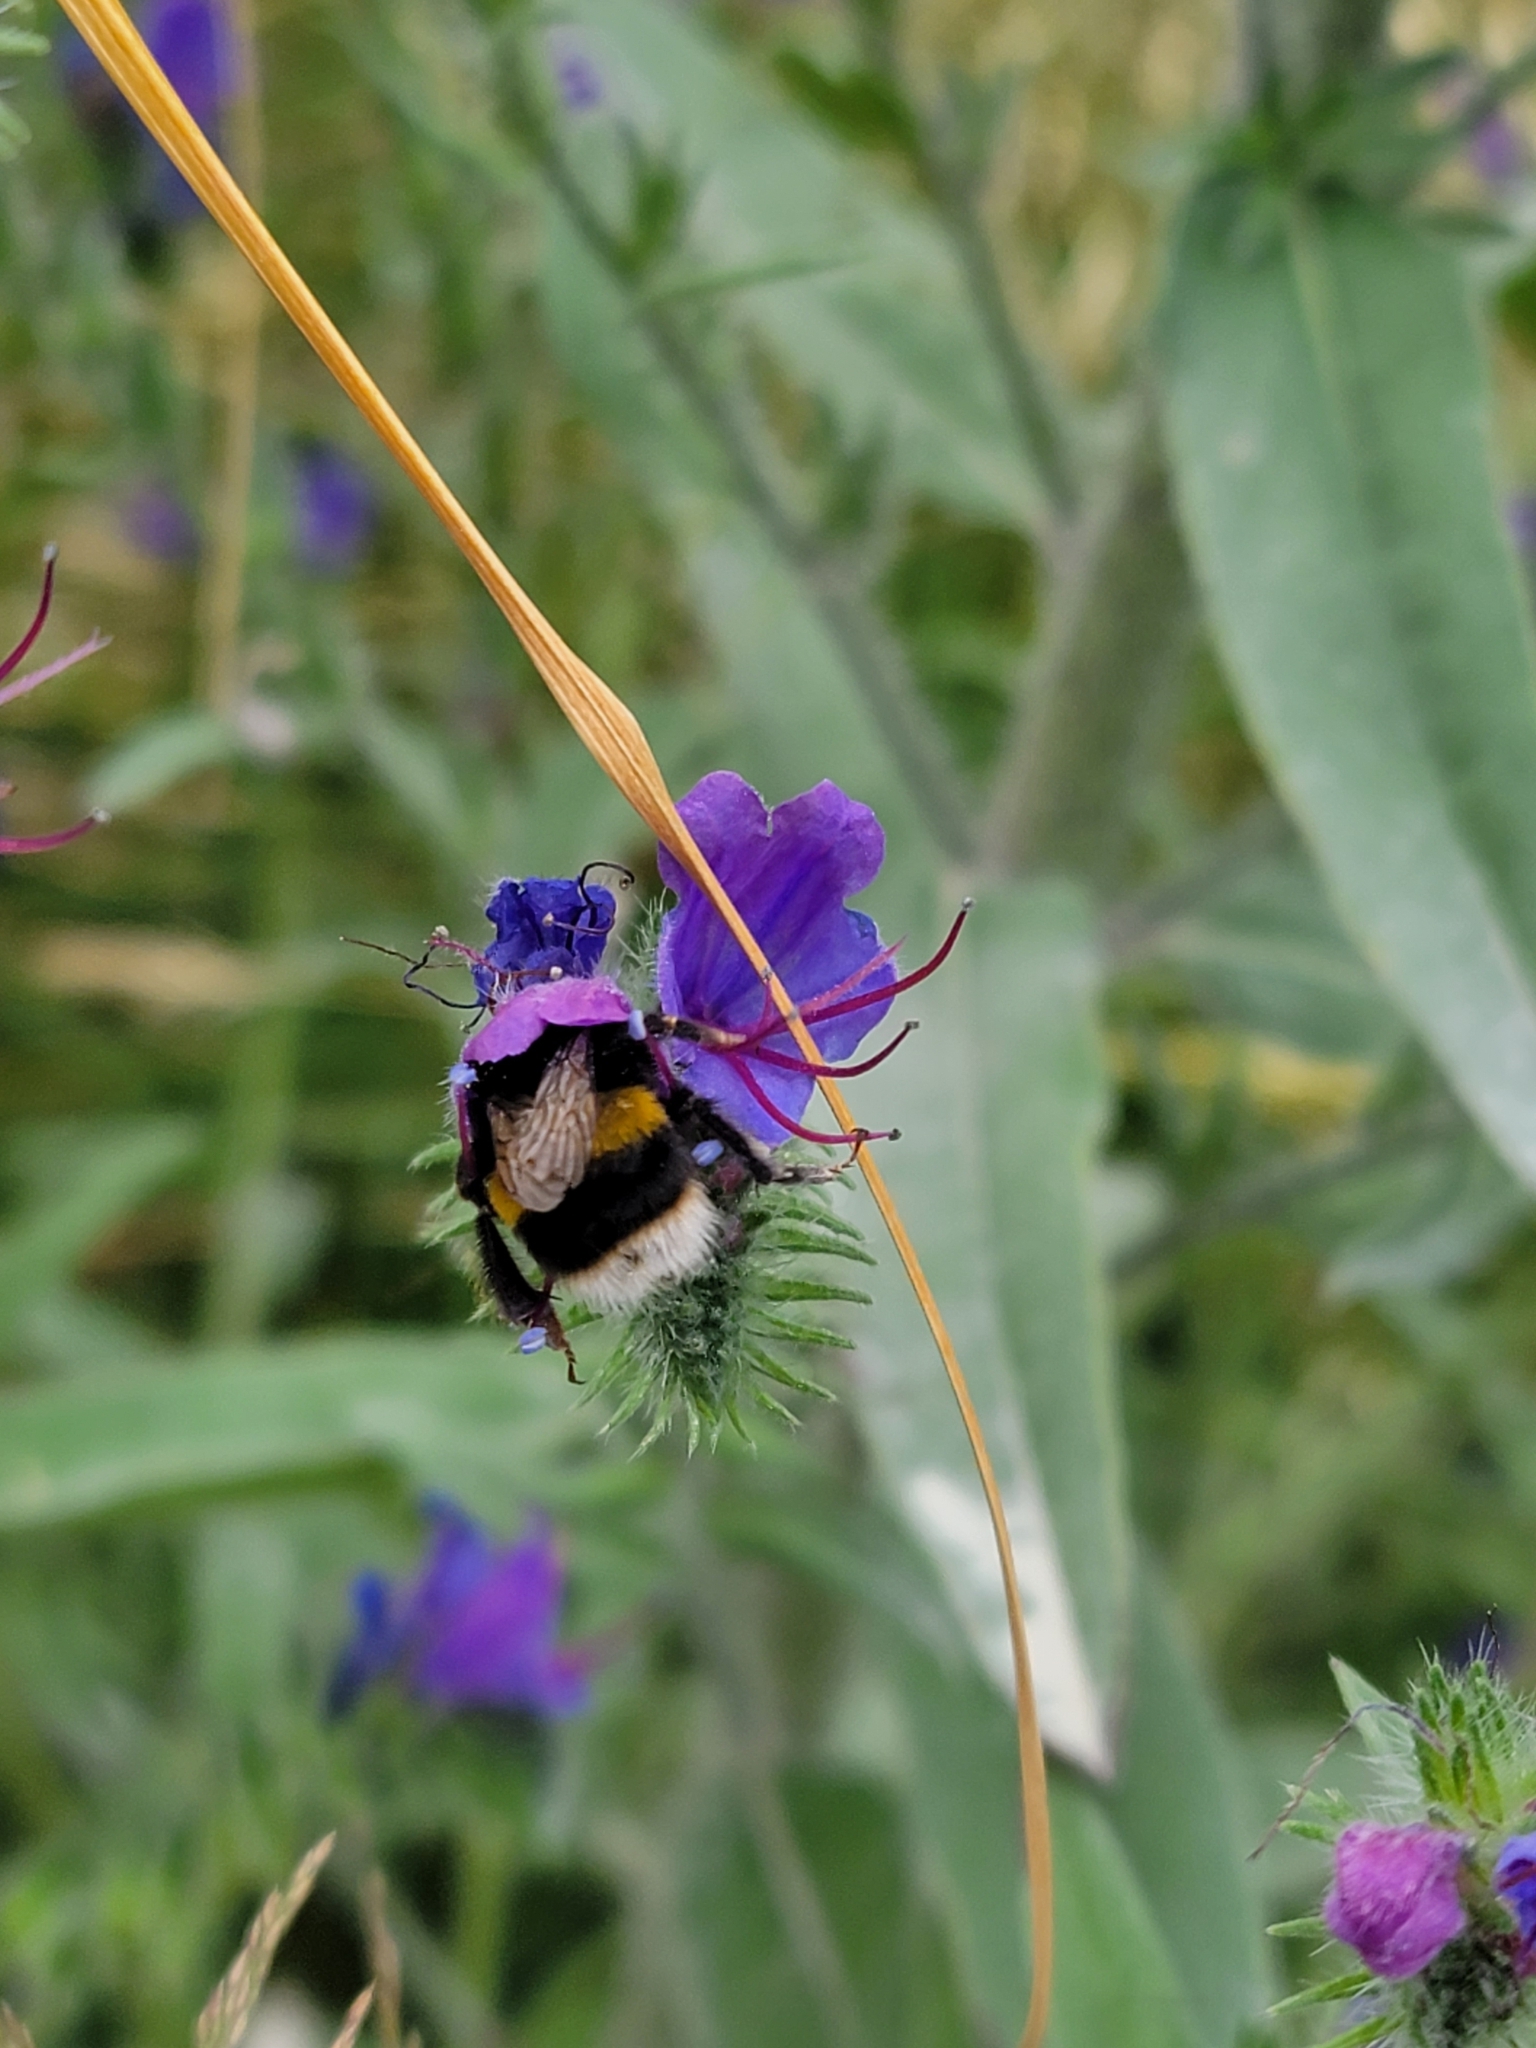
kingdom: Animalia
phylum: Arthropoda
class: Insecta
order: Hymenoptera
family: Apidae
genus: Bombus
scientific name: Bombus terrestris
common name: Buff-tailed bumblebee
